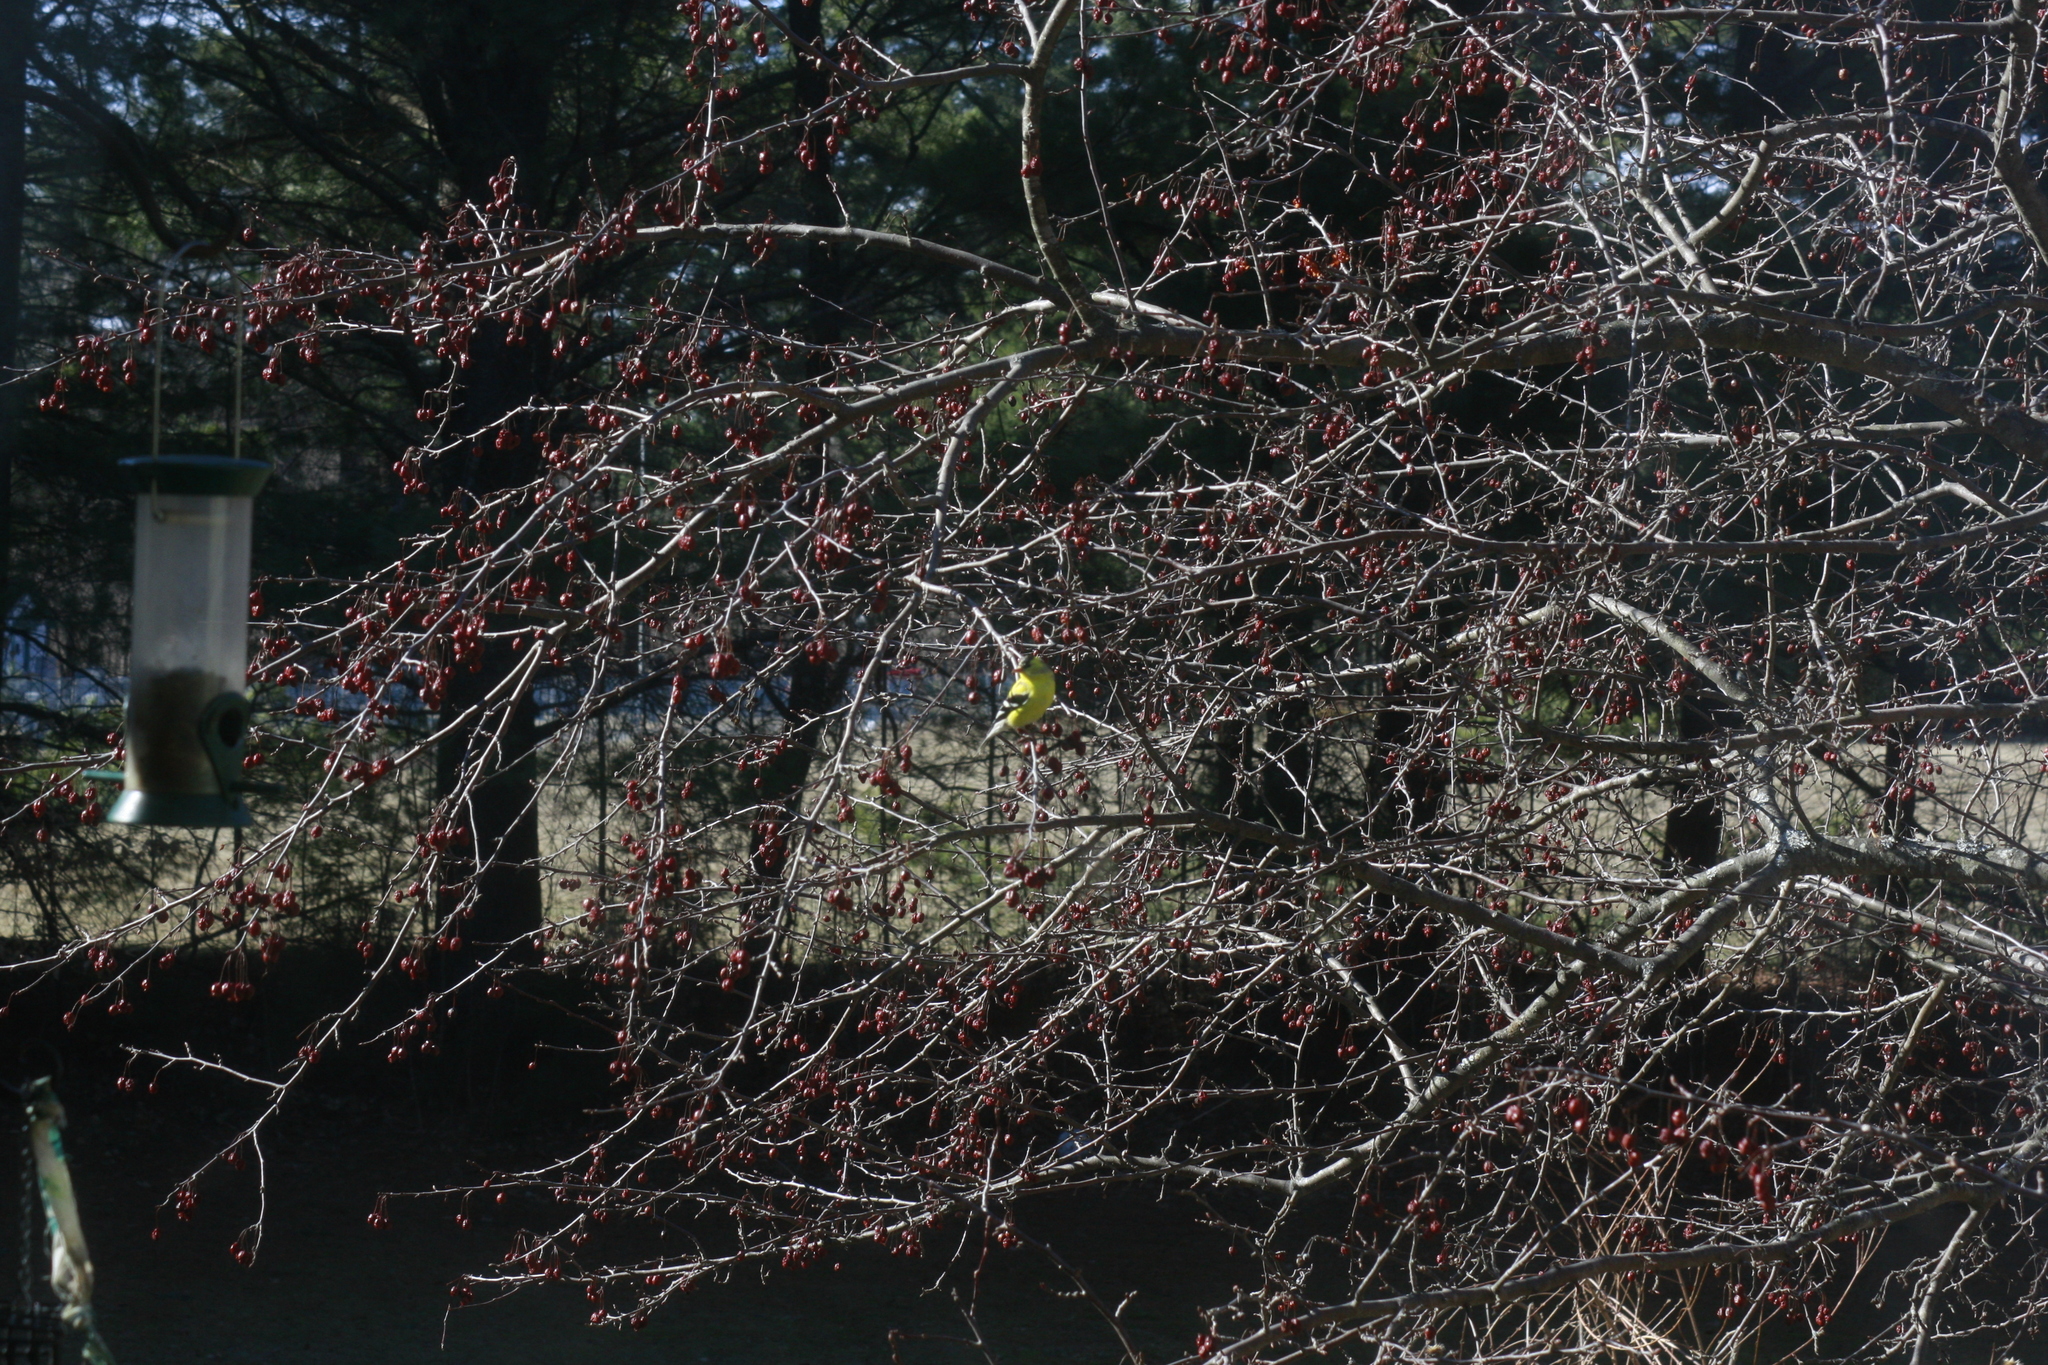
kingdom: Animalia
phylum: Chordata
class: Aves
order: Passeriformes
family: Fringillidae
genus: Spinus
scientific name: Spinus tristis
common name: American goldfinch
